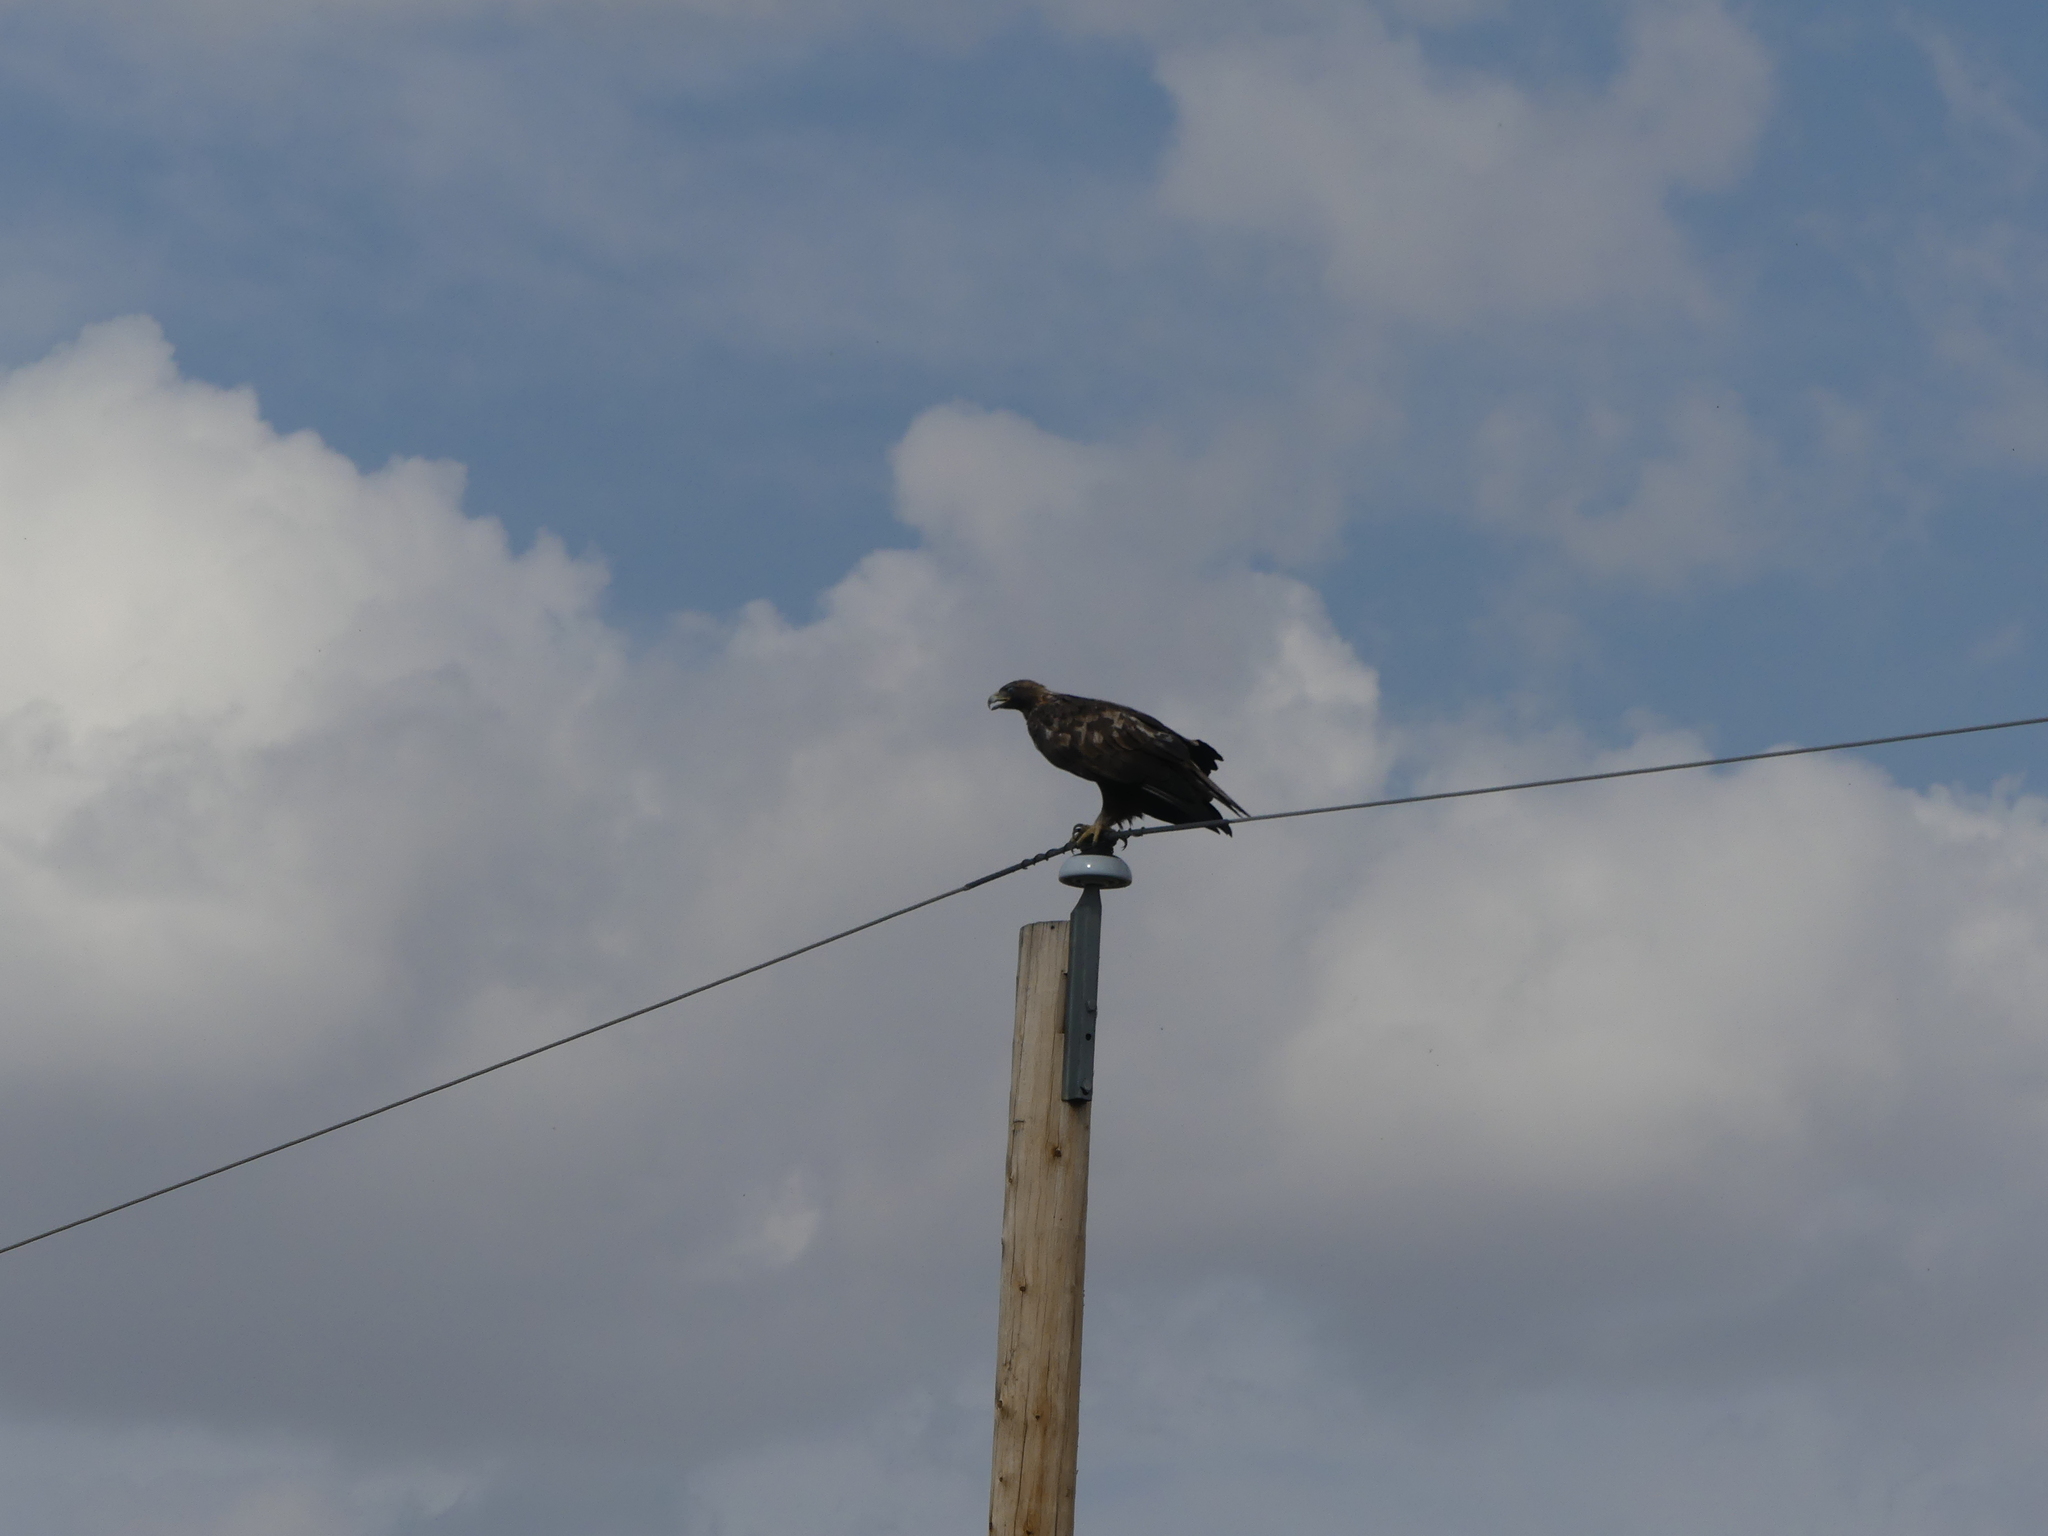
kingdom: Animalia
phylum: Chordata
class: Aves
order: Accipitriformes
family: Accipitridae
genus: Aquila
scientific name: Aquila chrysaetos
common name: Golden eagle
